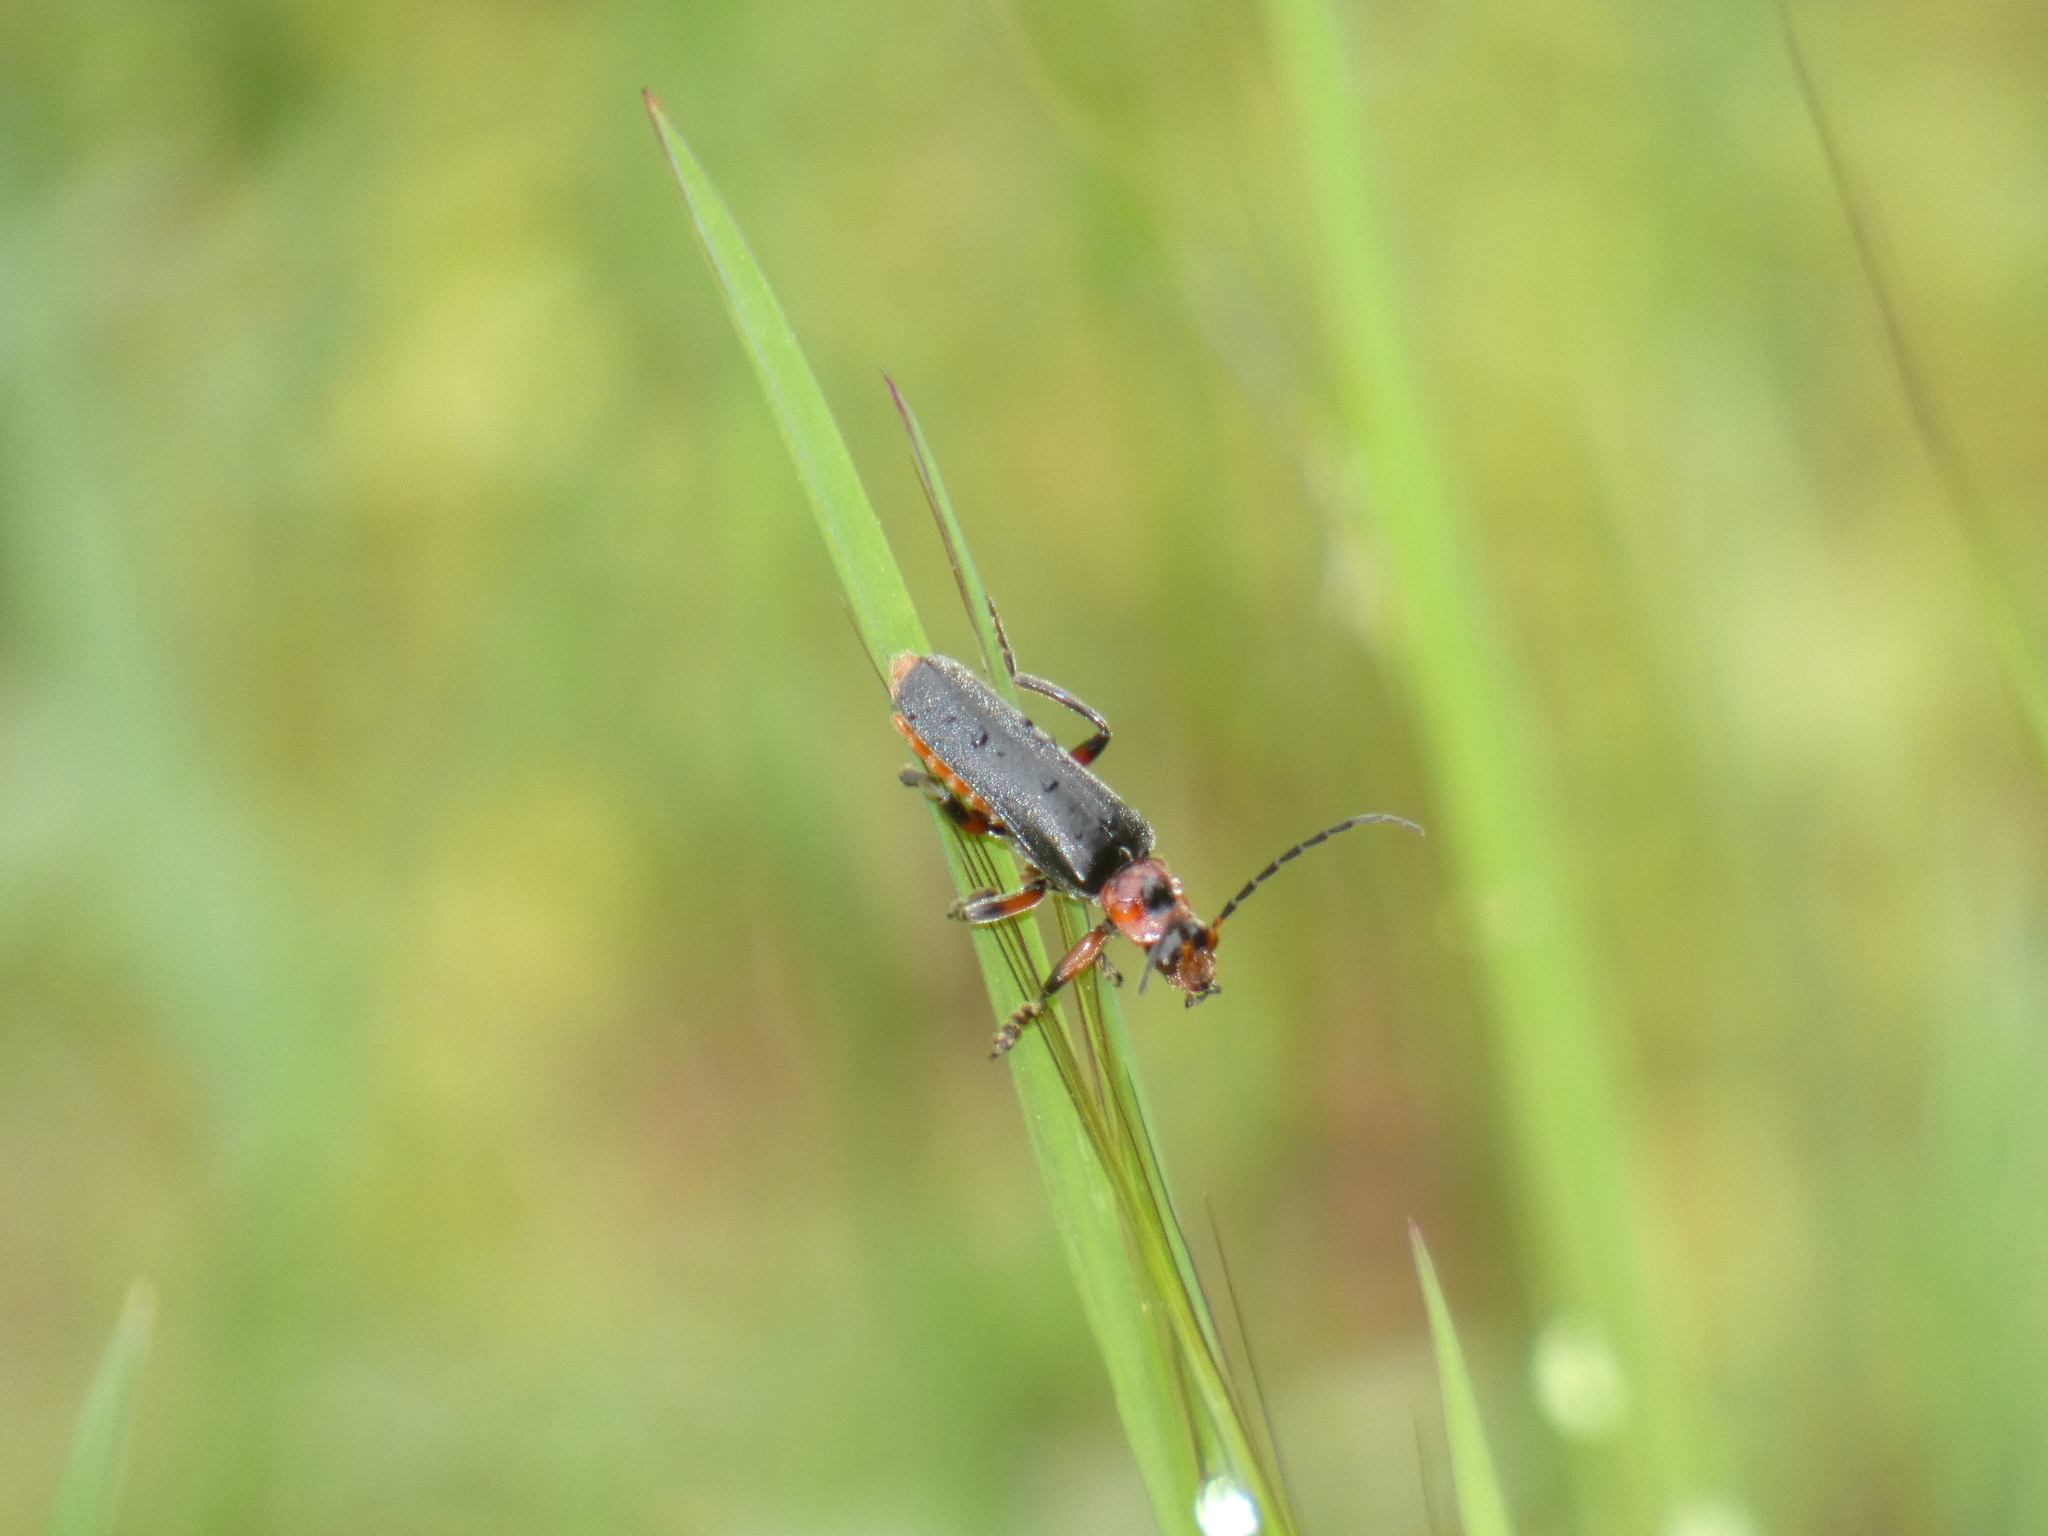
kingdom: Animalia
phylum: Arthropoda
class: Insecta
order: Coleoptera
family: Cantharidae
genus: Cantharis
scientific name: Cantharis rustica
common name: Soldier beetle
